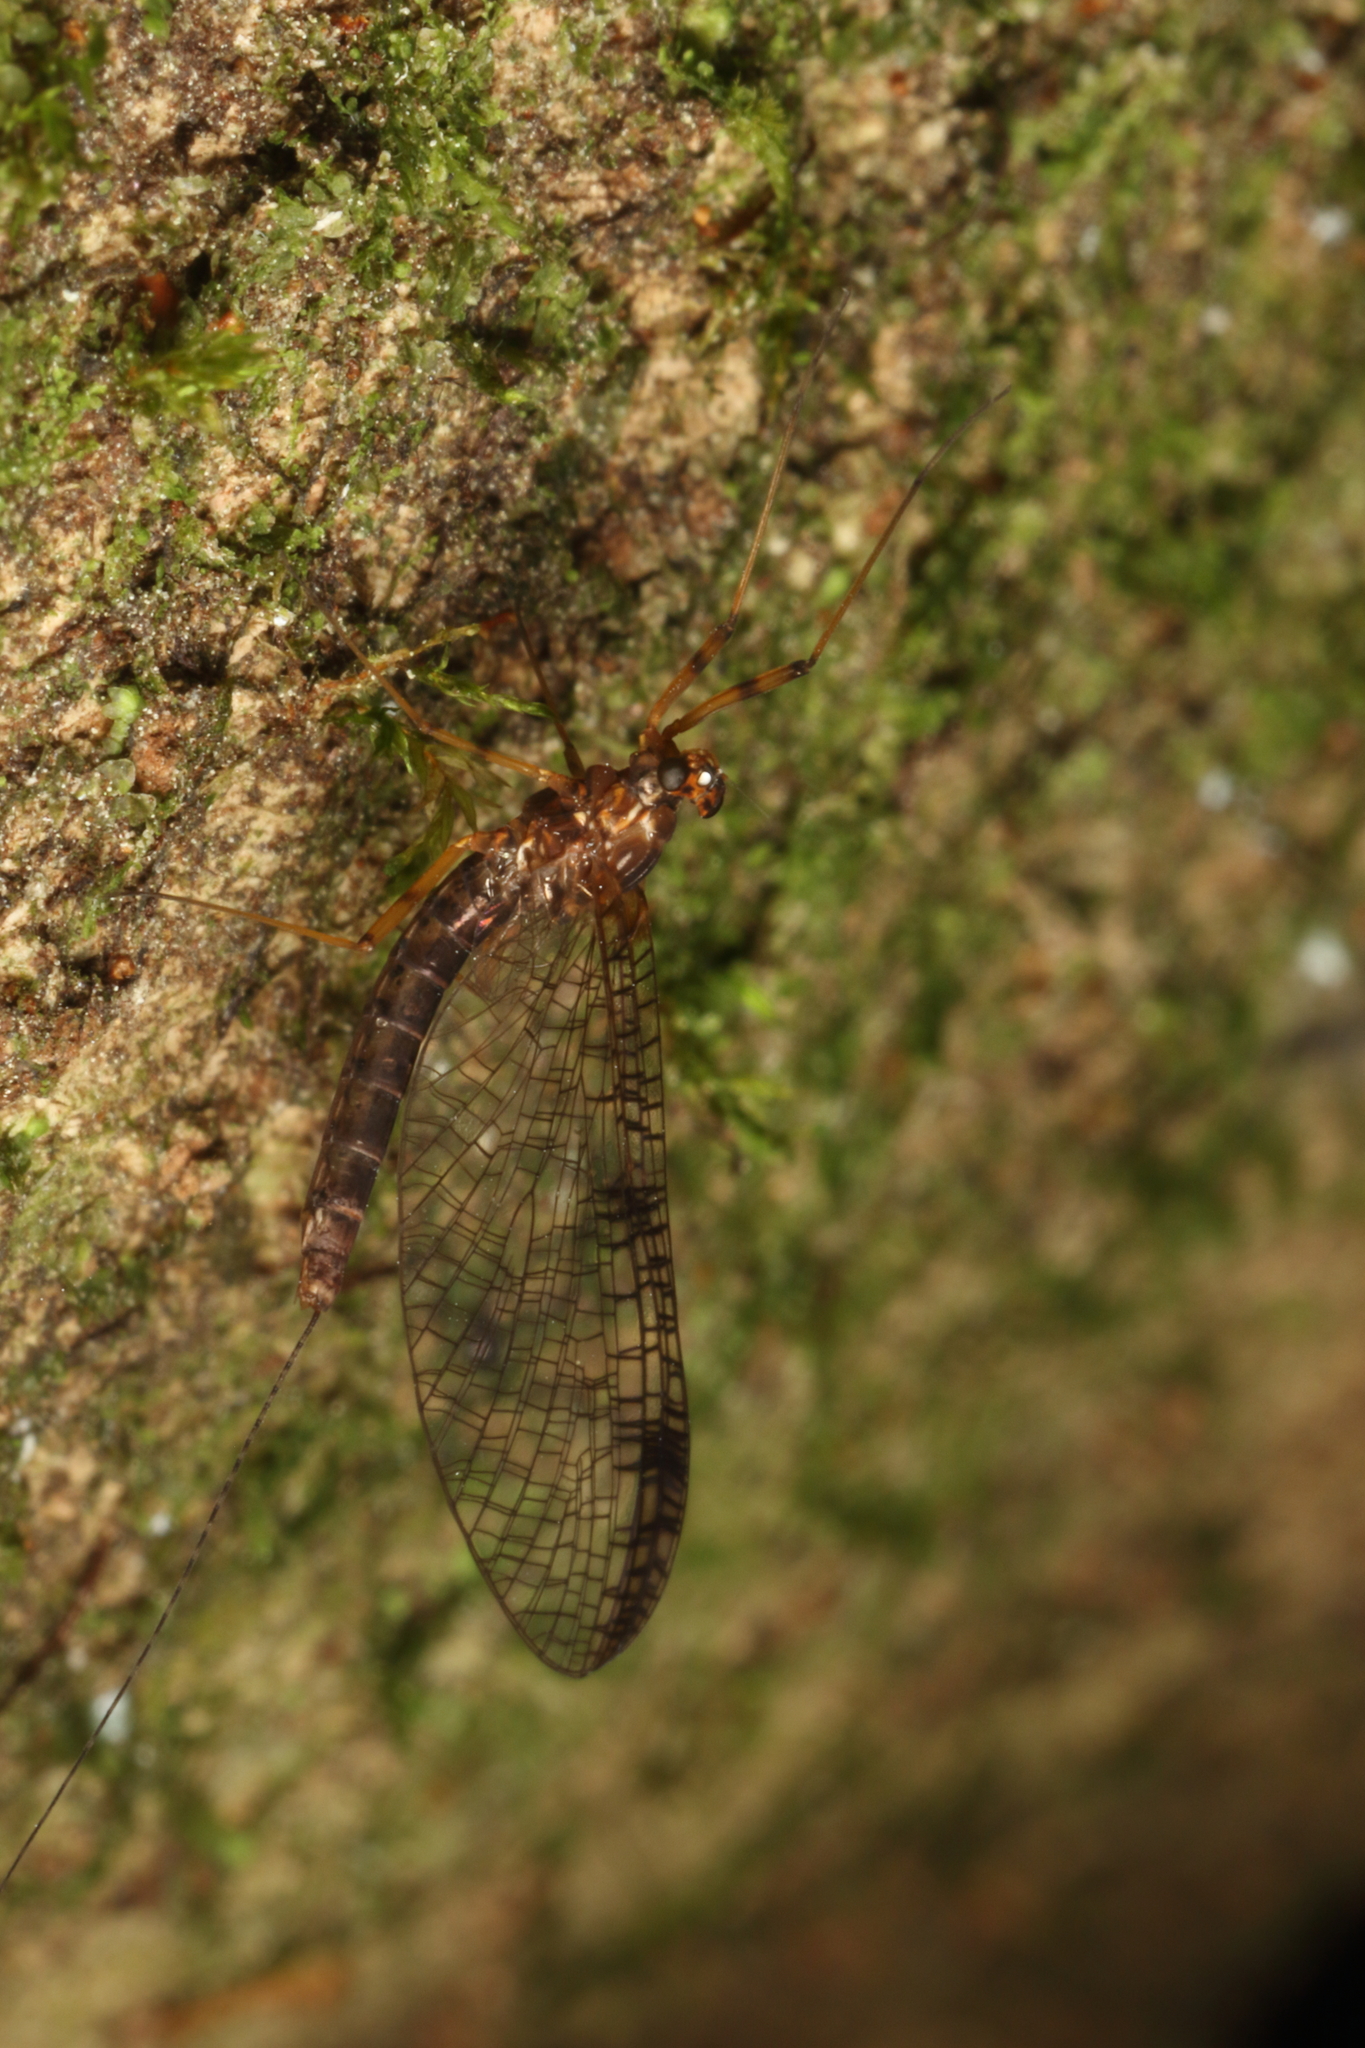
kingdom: Animalia
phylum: Arthropoda
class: Insecta
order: Ephemeroptera
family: Leptophlebiidae
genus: Neozephlebia
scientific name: Neozephlebia scita
